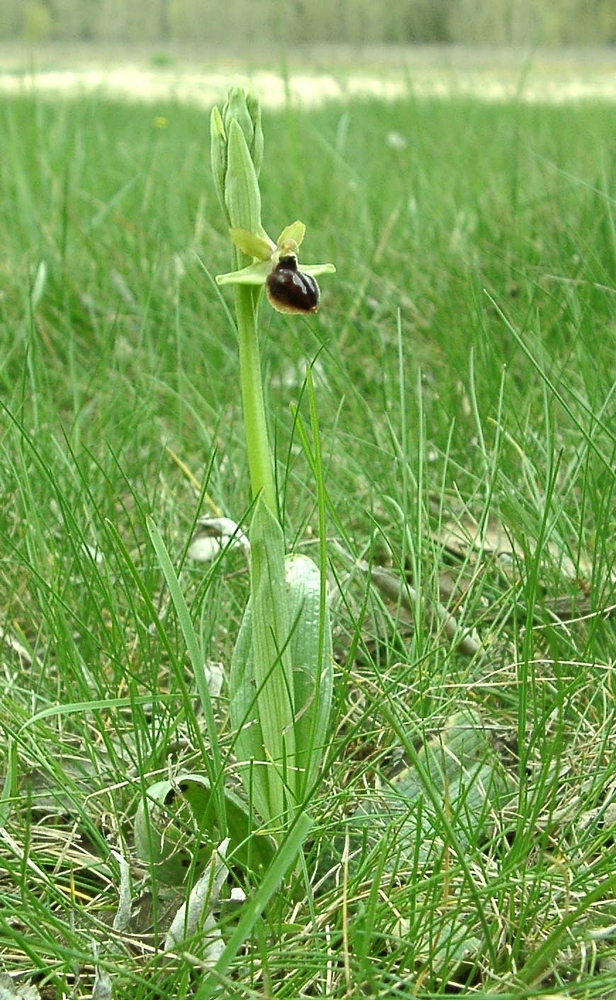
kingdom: Plantae
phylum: Tracheophyta
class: Liliopsida
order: Asparagales
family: Orchidaceae
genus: Ophrys
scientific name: Ophrys sphegodes
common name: Early spider-orchid
